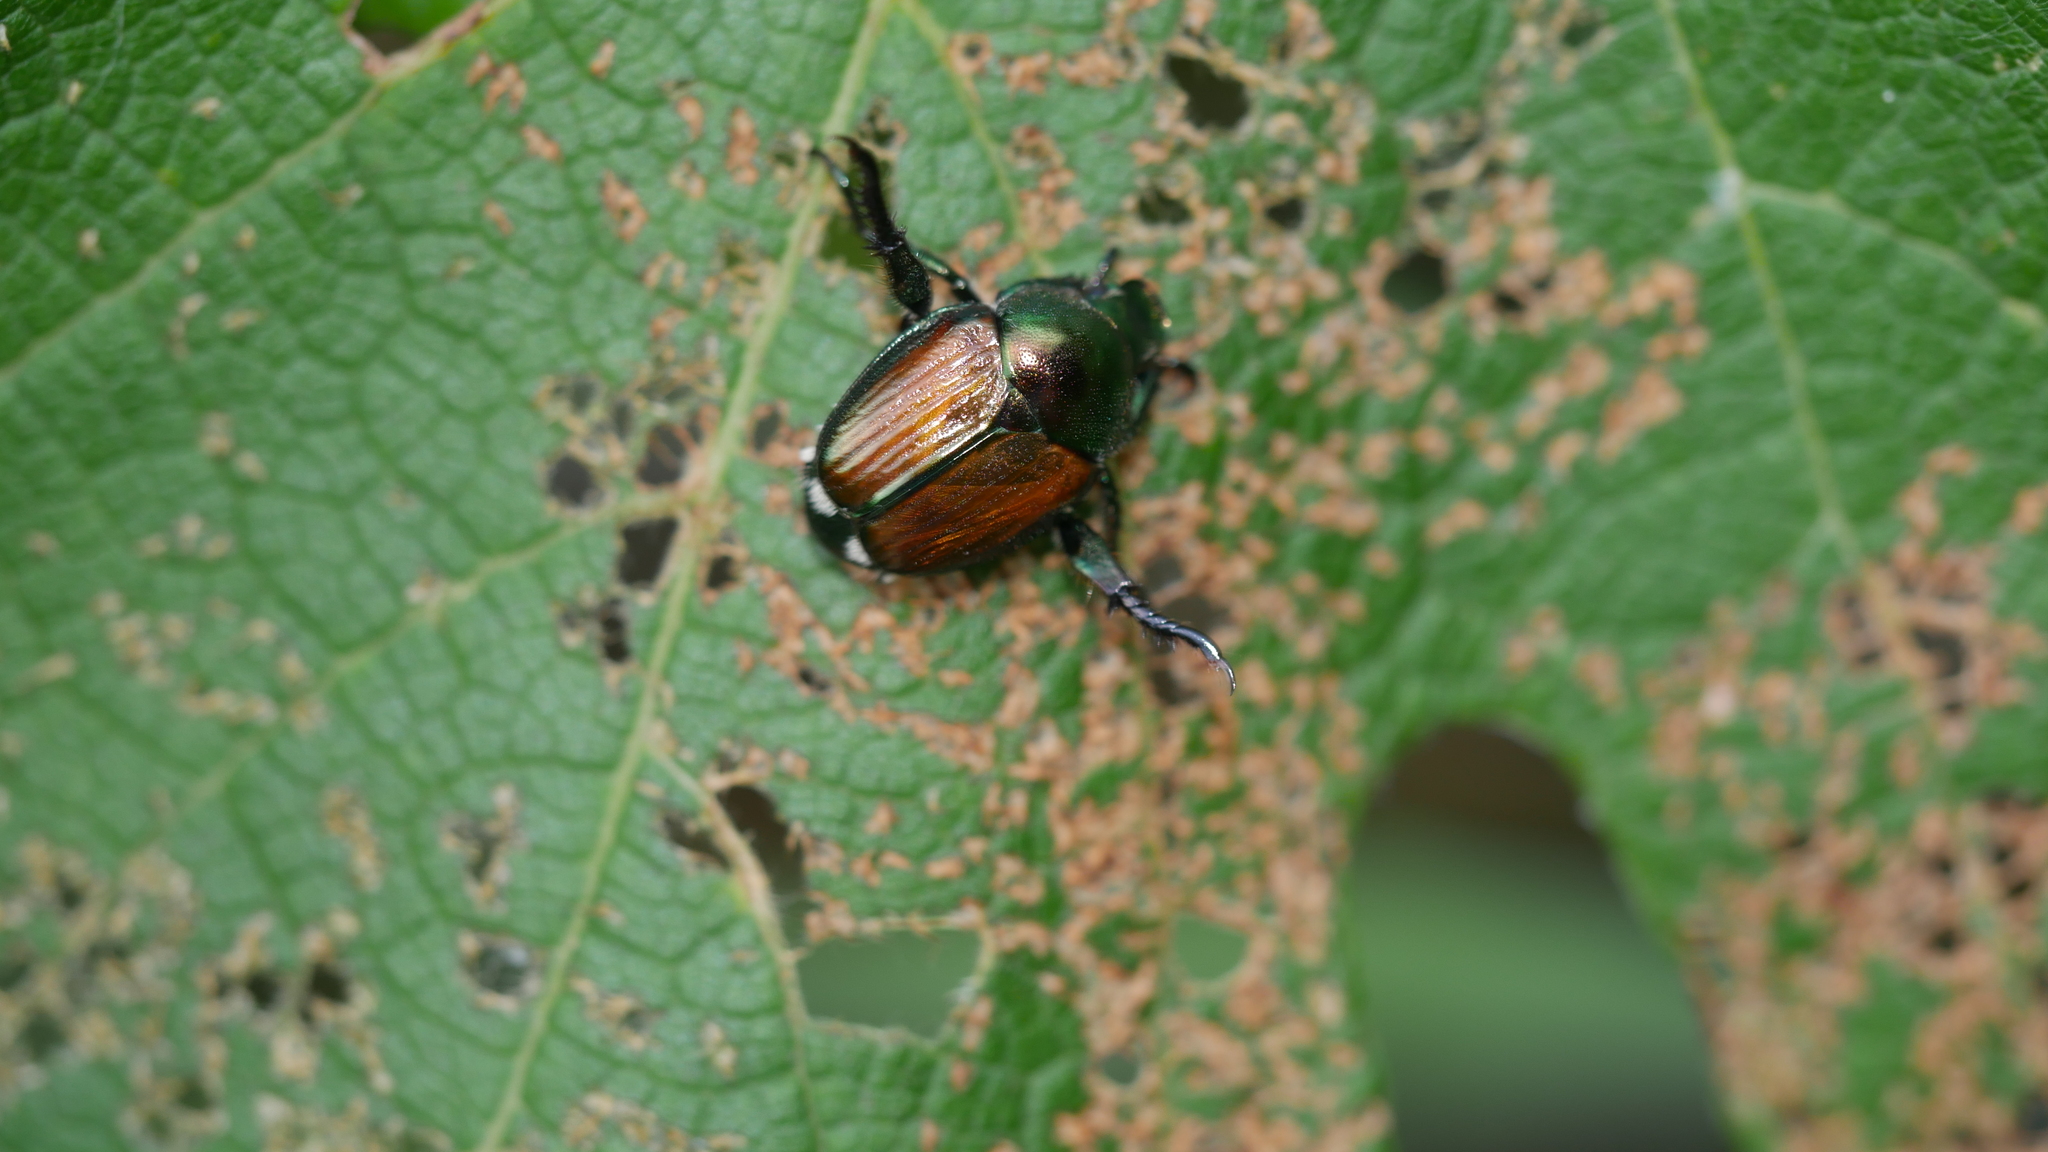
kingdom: Animalia
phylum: Arthropoda
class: Insecta
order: Coleoptera
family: Scarabaeidae
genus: Popillia
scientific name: Popillia japonica
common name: Japanese beetle
